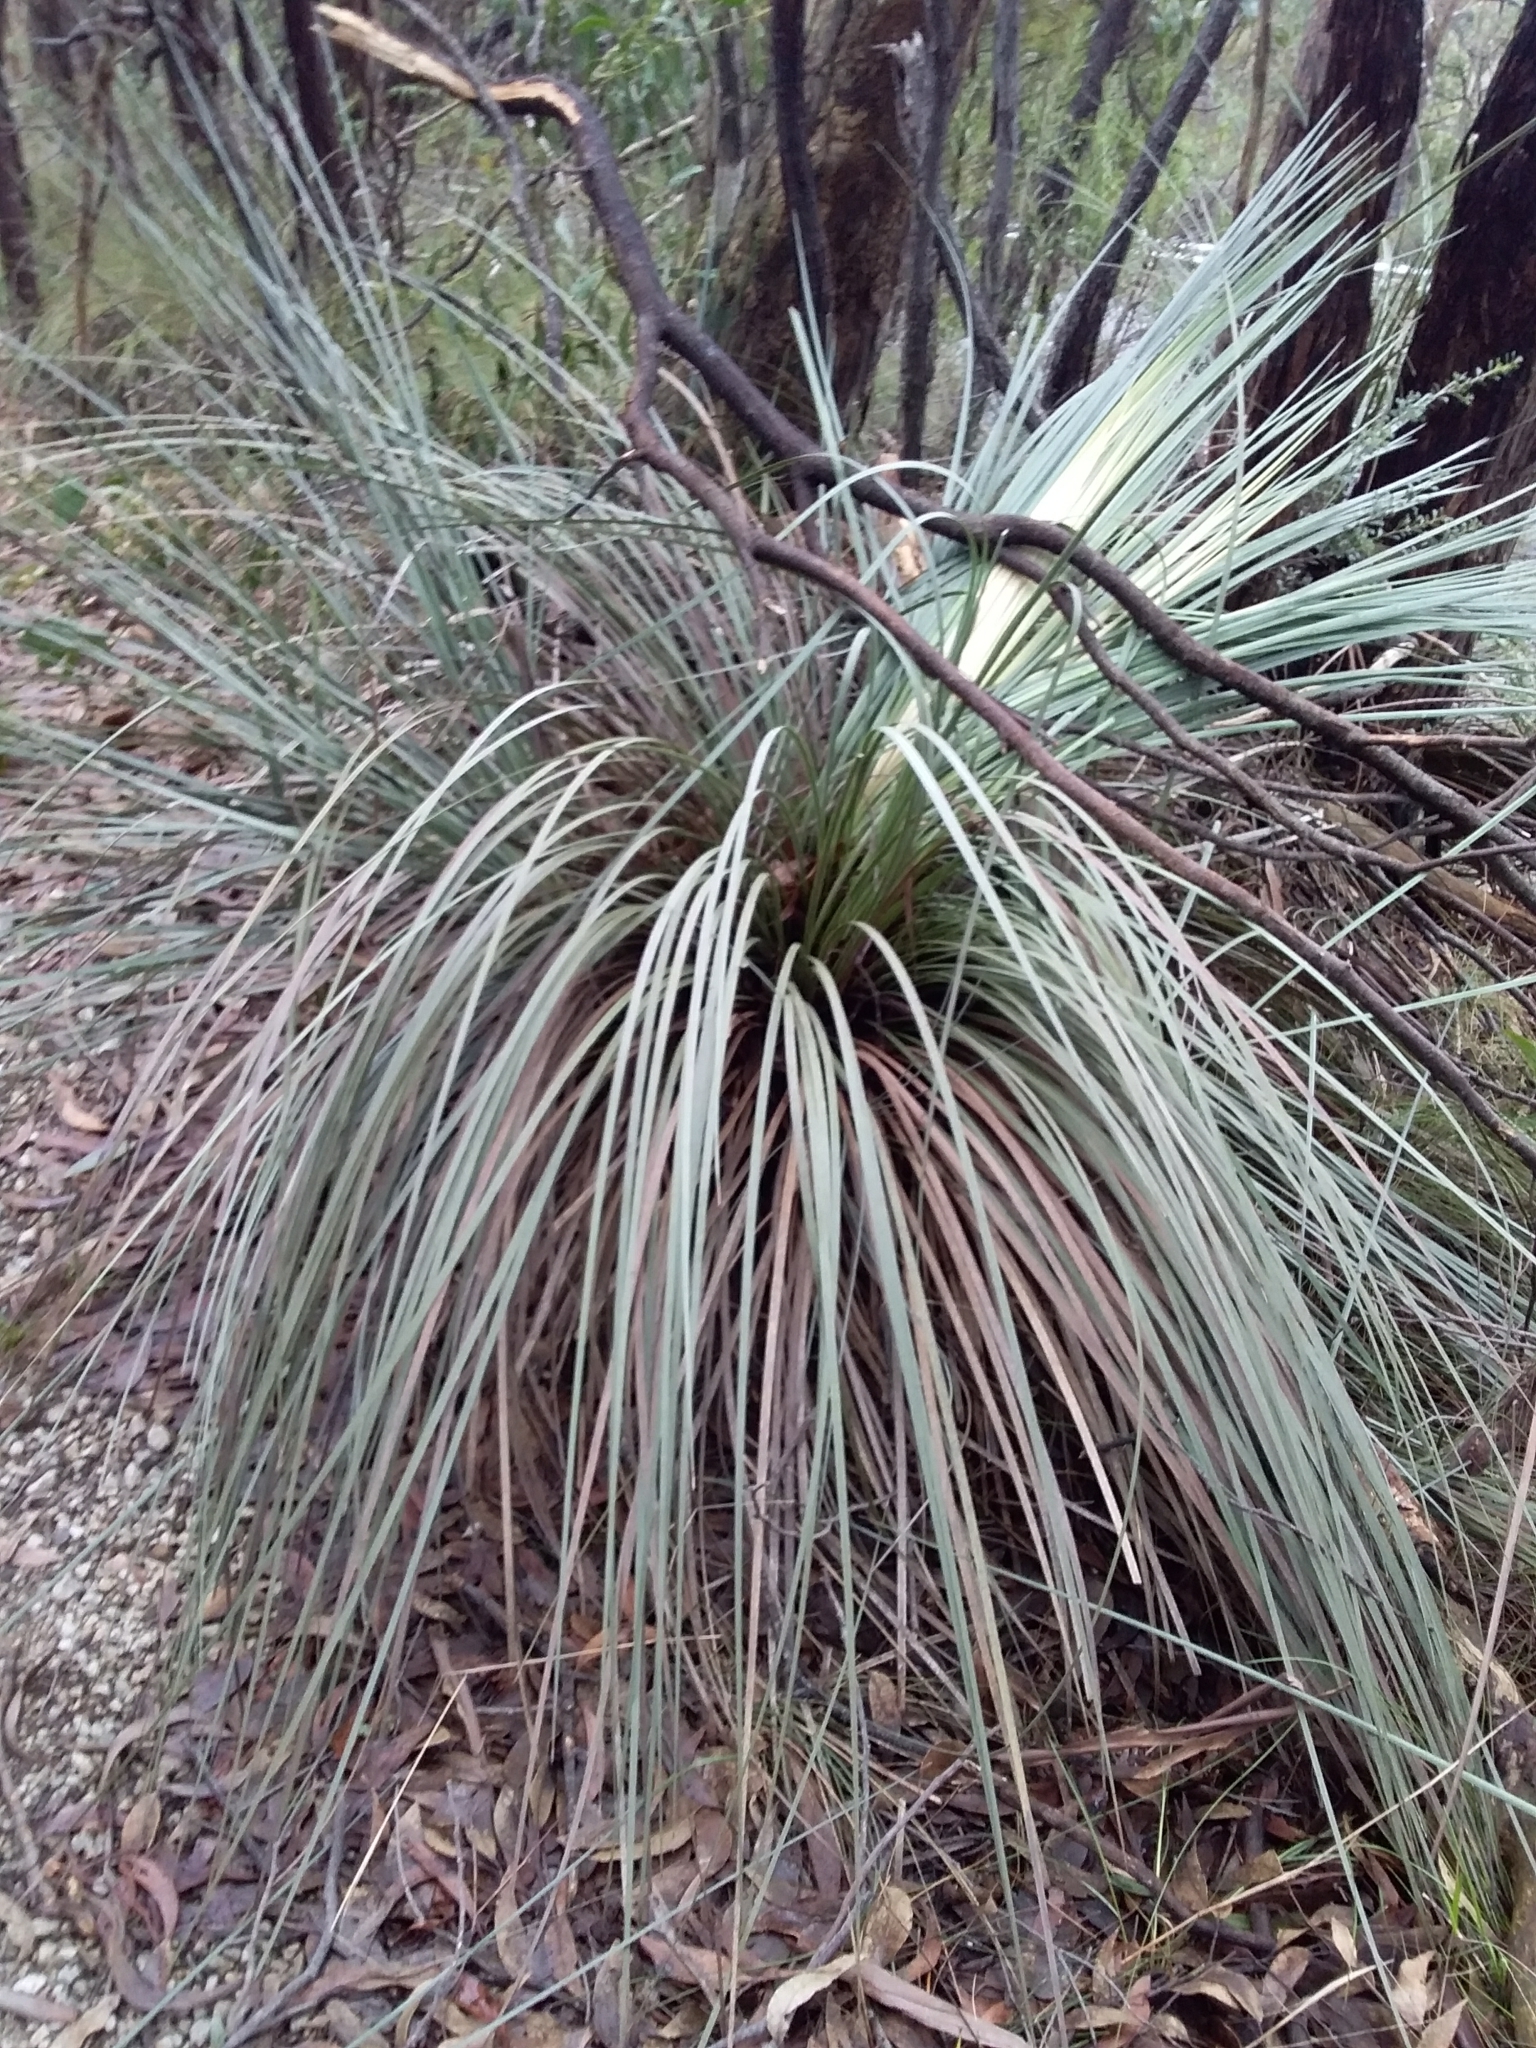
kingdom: Plantae
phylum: Tracheophyta
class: Liliopsida
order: Asparagales
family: Asphodelaceae
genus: Xanthorrhoea
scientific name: Xanthorrhoea semiplana
